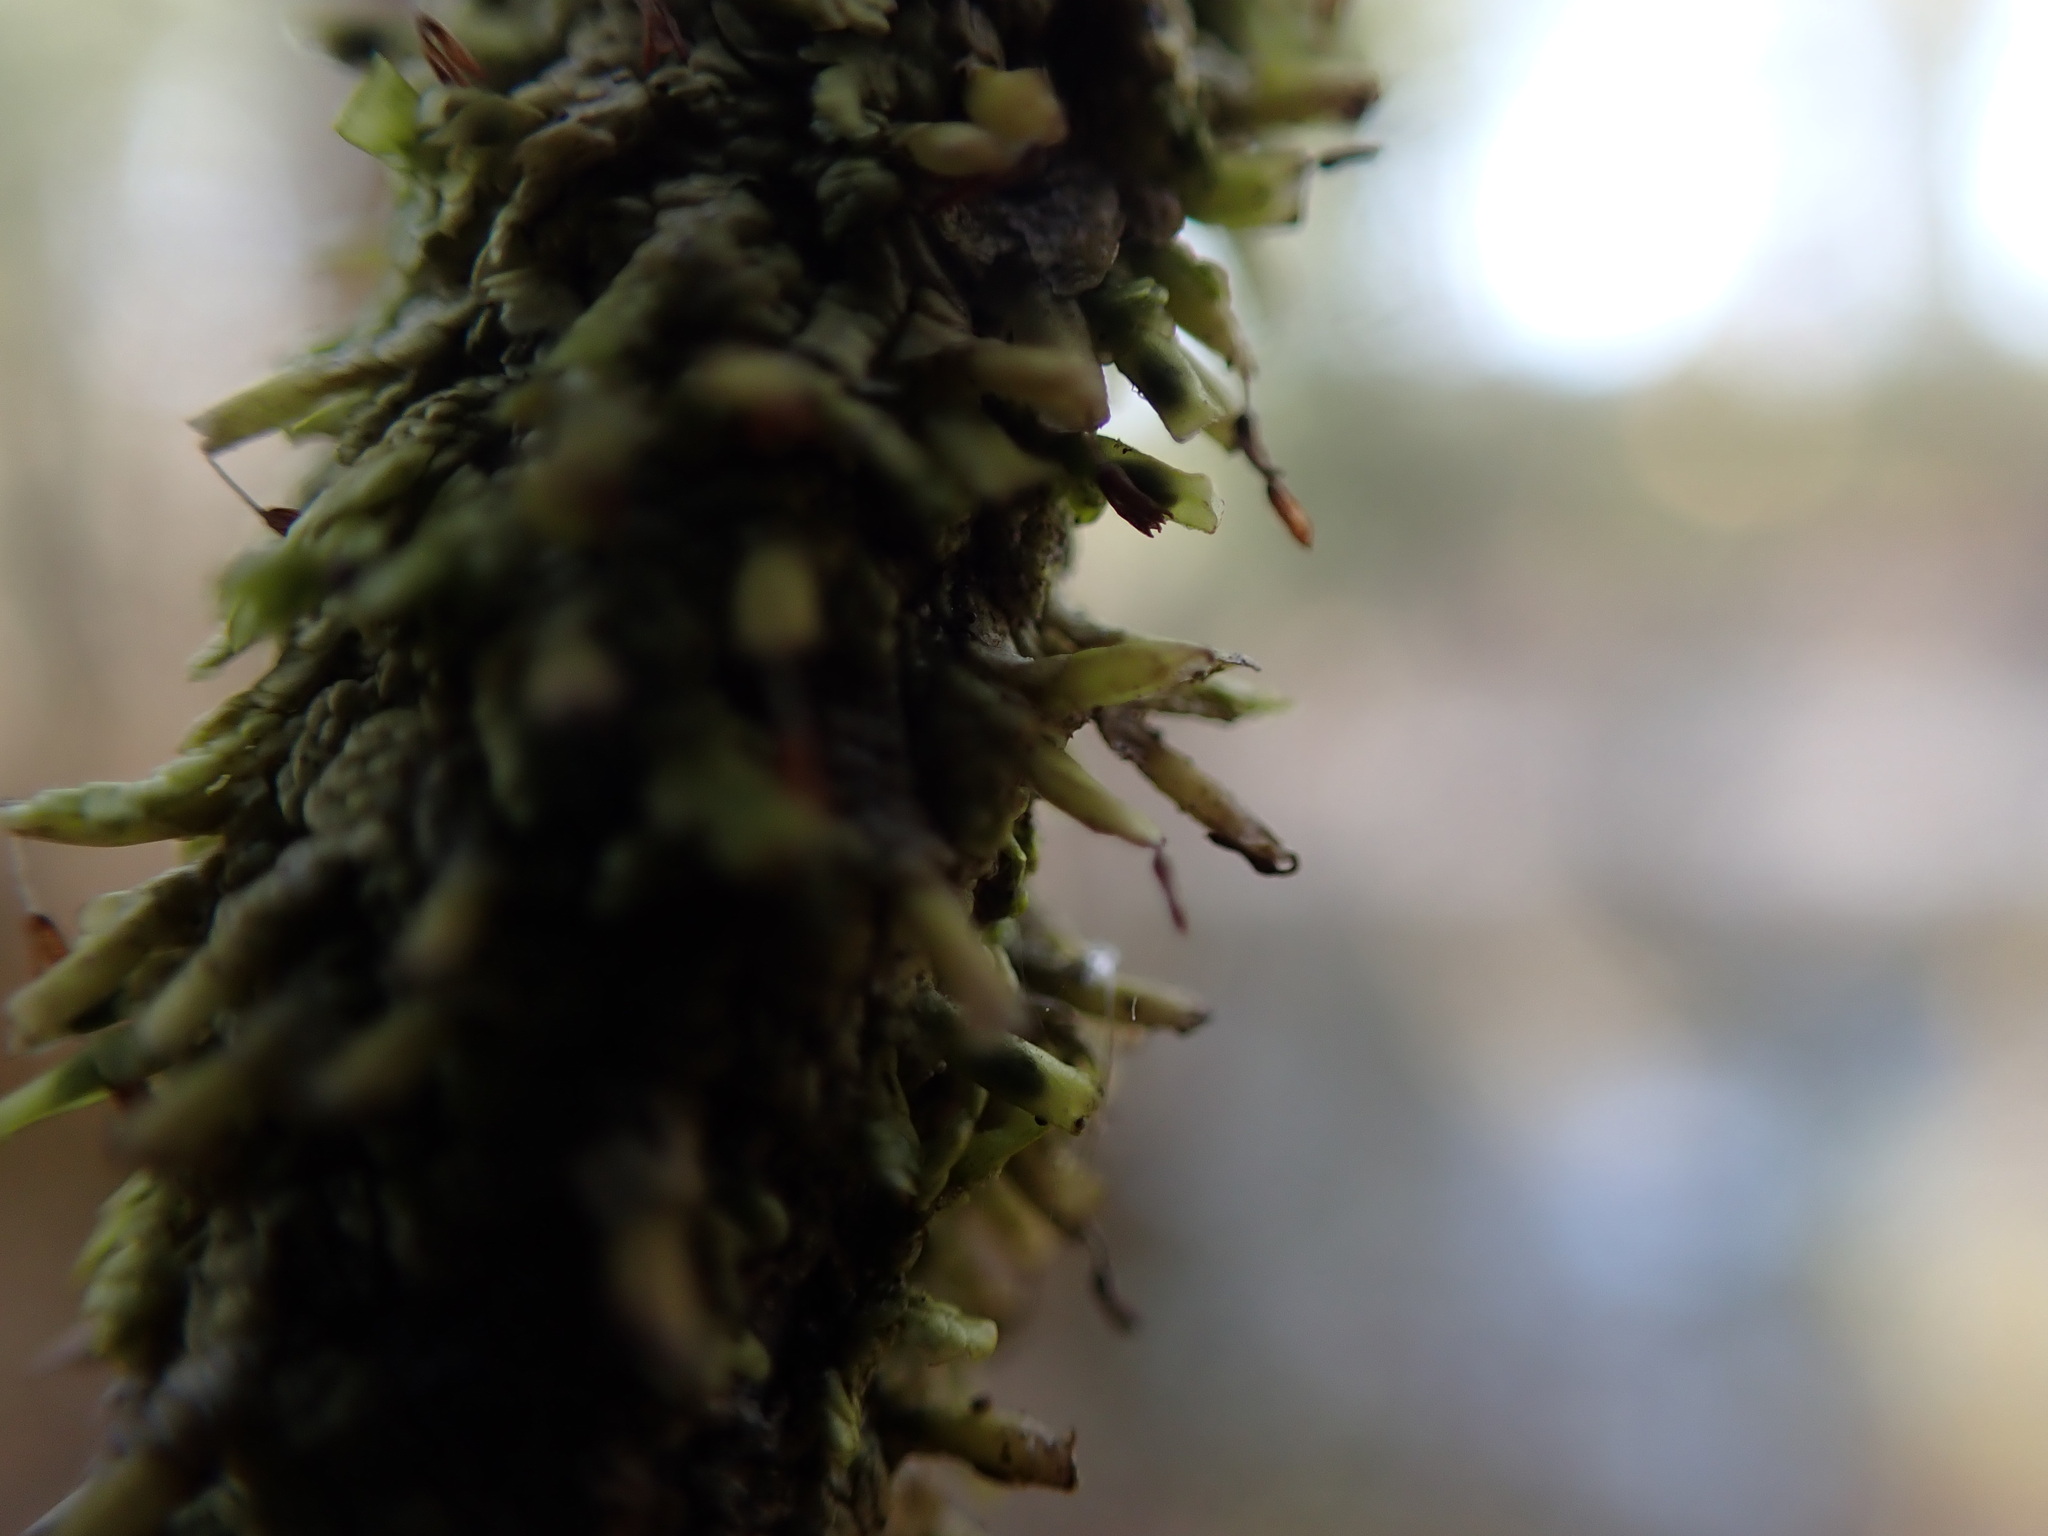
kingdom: Plantae
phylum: Marchantiophyta
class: Jungermanniopsida
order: Porellales
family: Radulaceae
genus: Radula
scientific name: Radula complanata
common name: Flat-leaved scalewort
